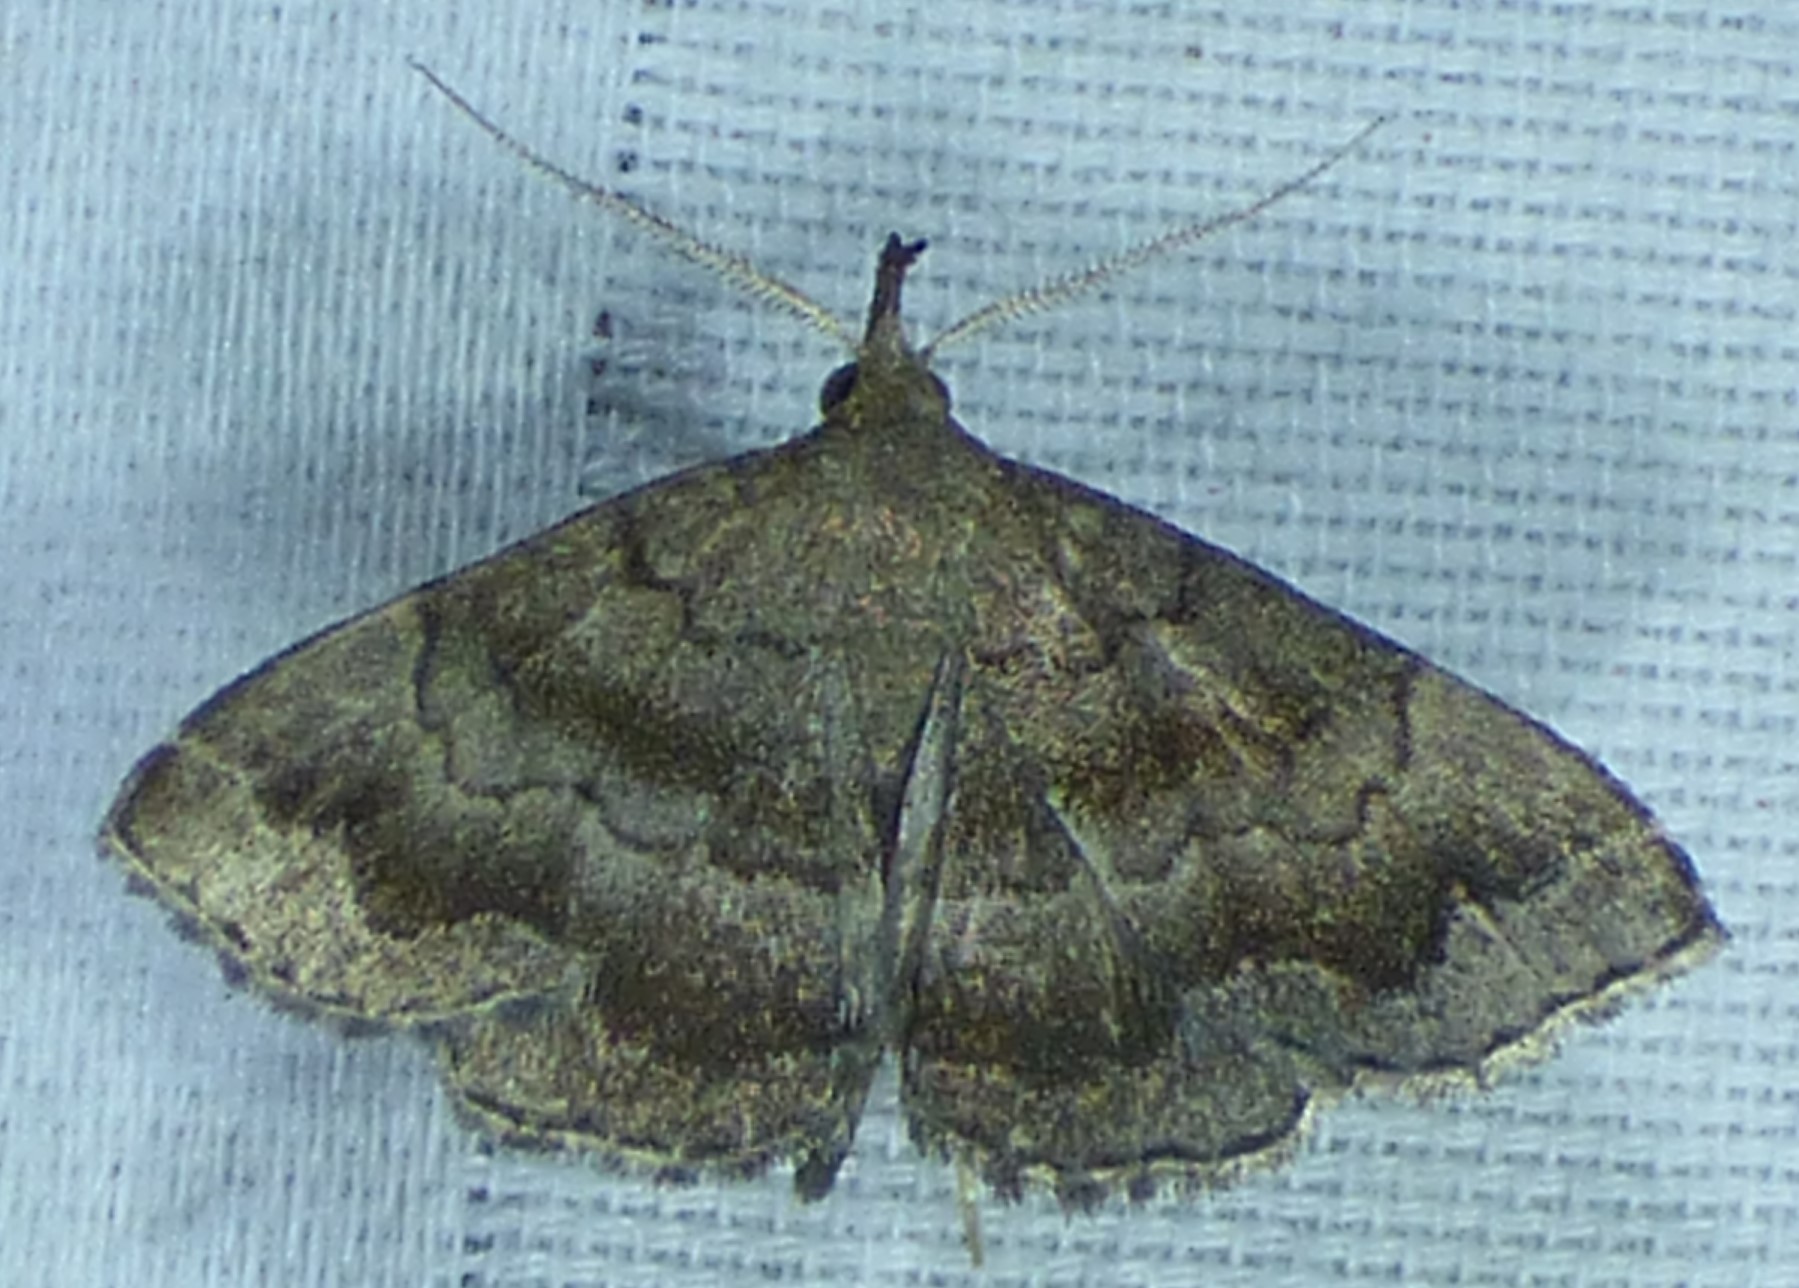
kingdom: Animalia
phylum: Arthropoda
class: Insecta
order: Lepidoptera
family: Erebidae
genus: Phalaenostola
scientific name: Phalaenostola larentioides
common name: Black-banded owlet
